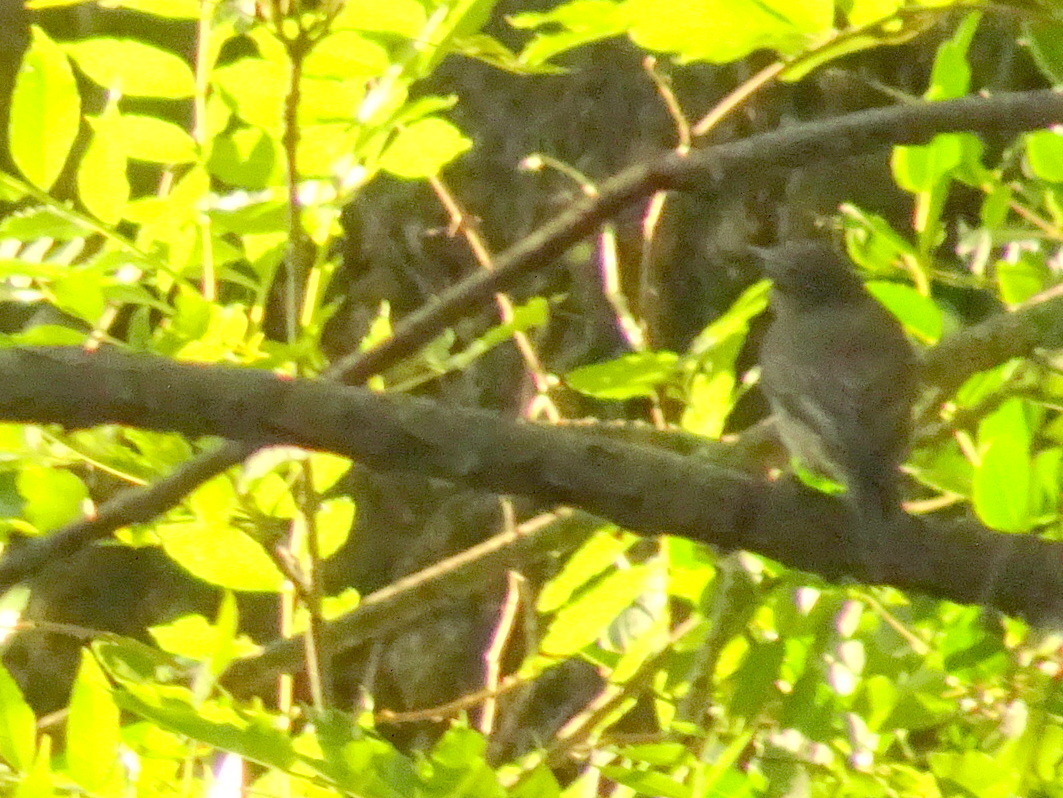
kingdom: Animalia
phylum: Chordata
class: Aves
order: Passeriformes
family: Muscicapidae
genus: Muscicapa
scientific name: Muscicapa striata
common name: Spotted flycatcher
